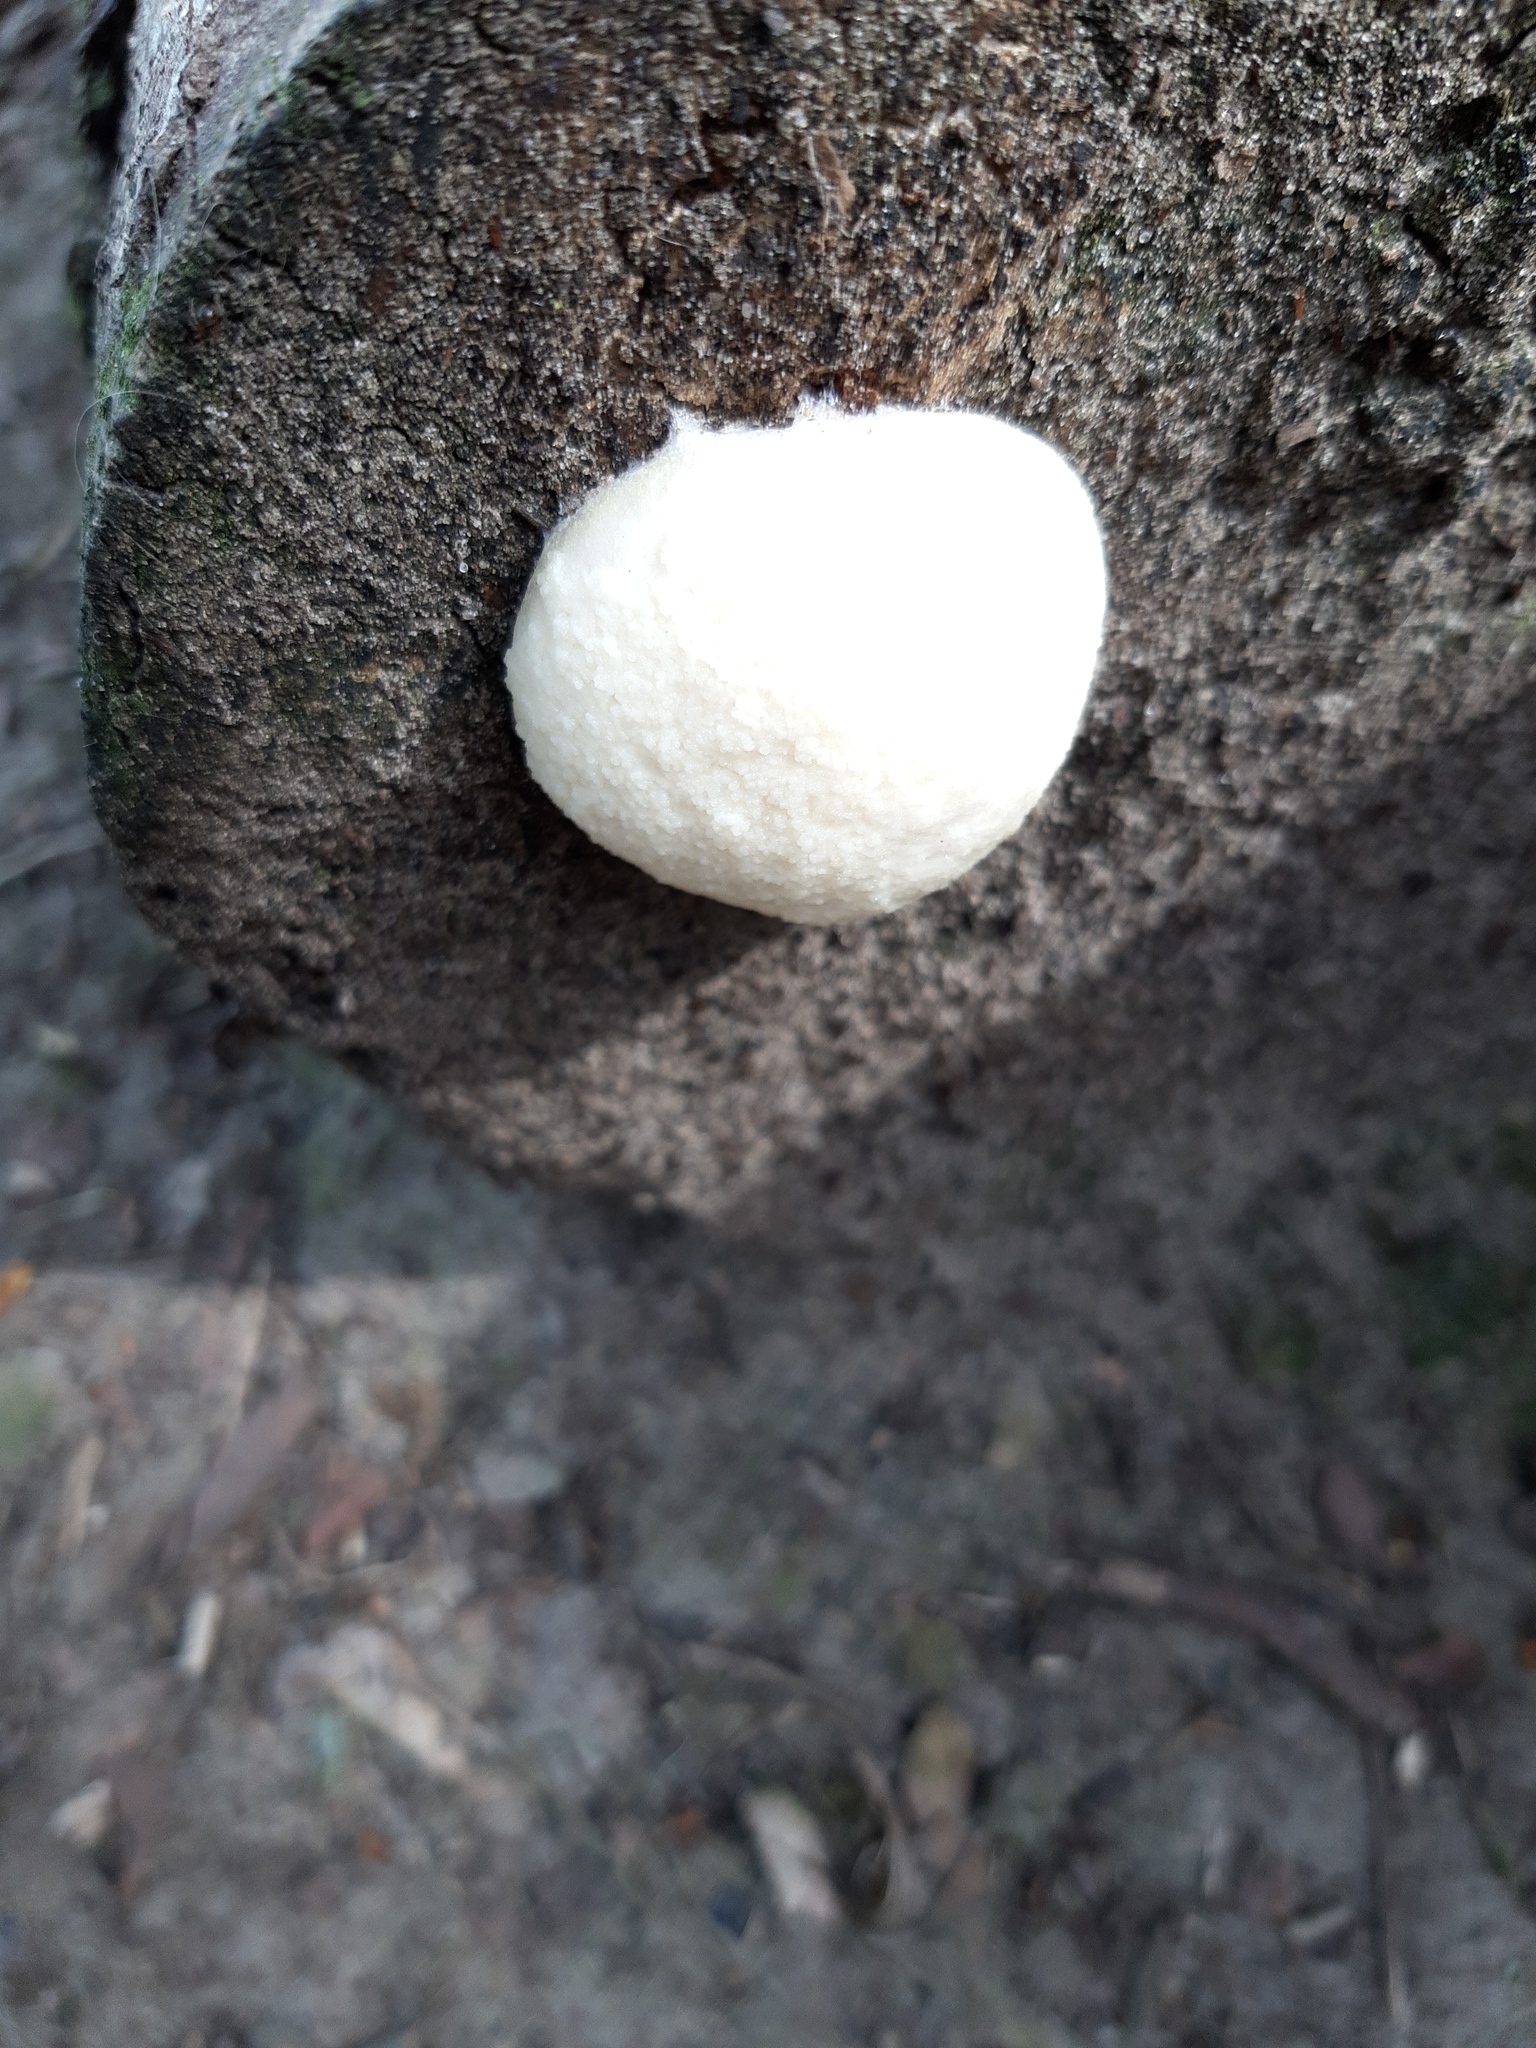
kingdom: Protozoa
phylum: Mycetozoa
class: Myxomycetes
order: Cribrariales
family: Tubiferaceae
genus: Reticularia
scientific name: Reticularia lycoperdon
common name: False puffball
